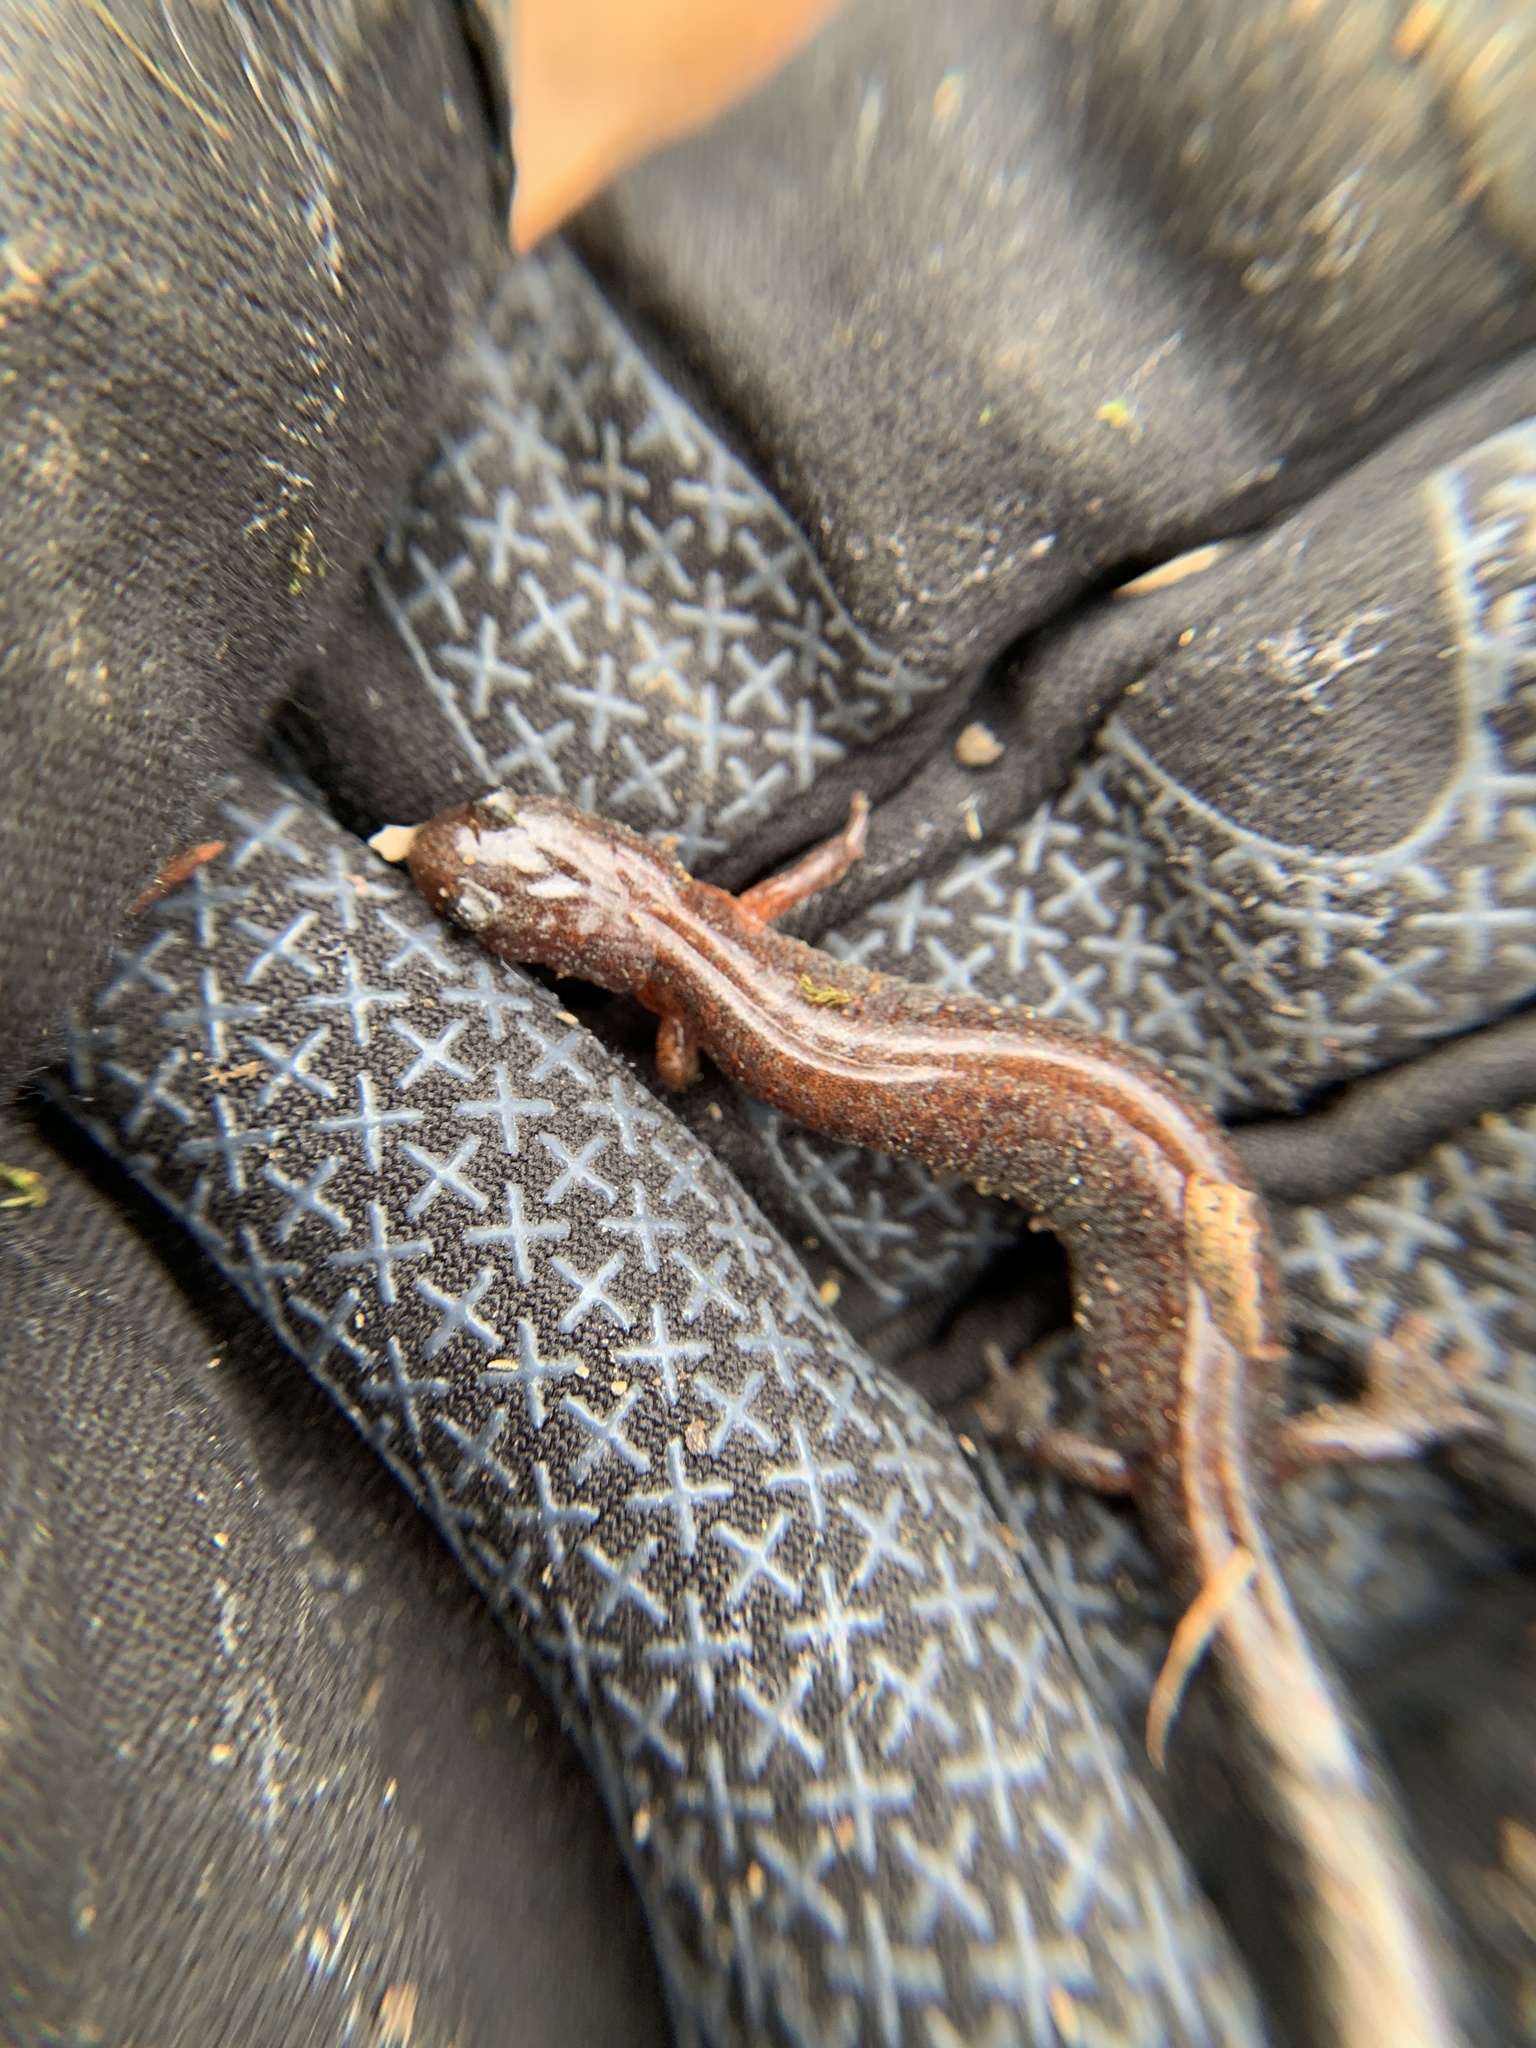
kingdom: Animalia
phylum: Chordata
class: Amphibia
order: Caudata
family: Plethodontidae
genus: Plethodon
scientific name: Plethodon dorsalis
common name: Northern zigzag salamander
